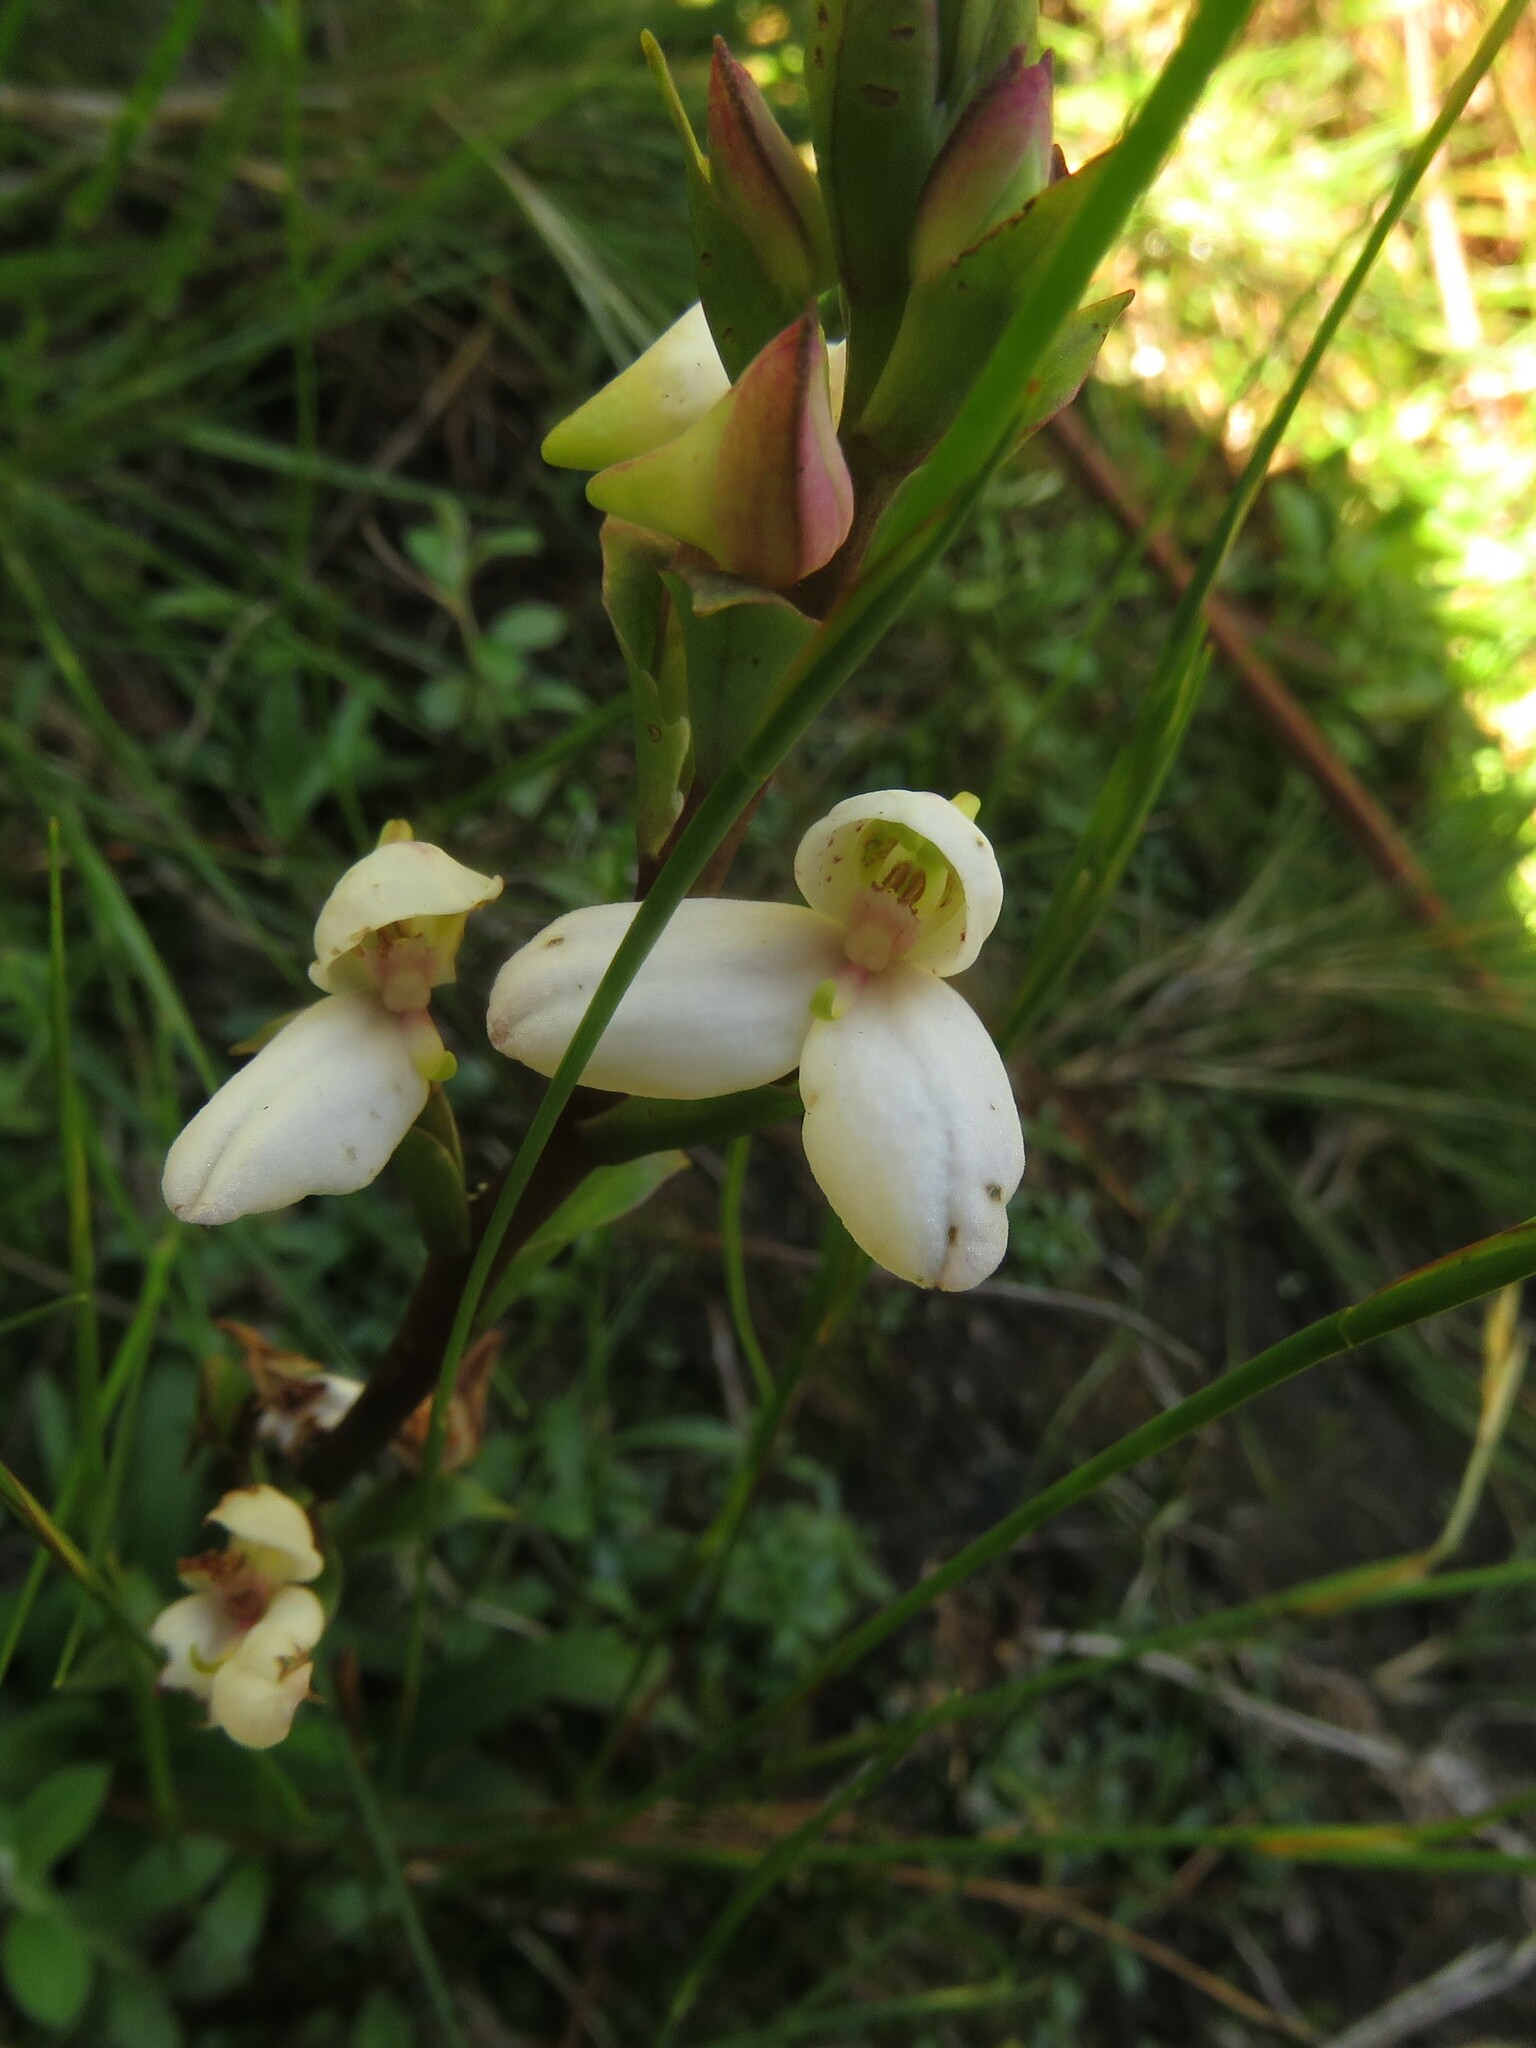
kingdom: Plantae
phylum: Tracheophyta
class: Liliopsida
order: Asparagales
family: Orchidaceae
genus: Disa
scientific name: Disa tripetaloides
